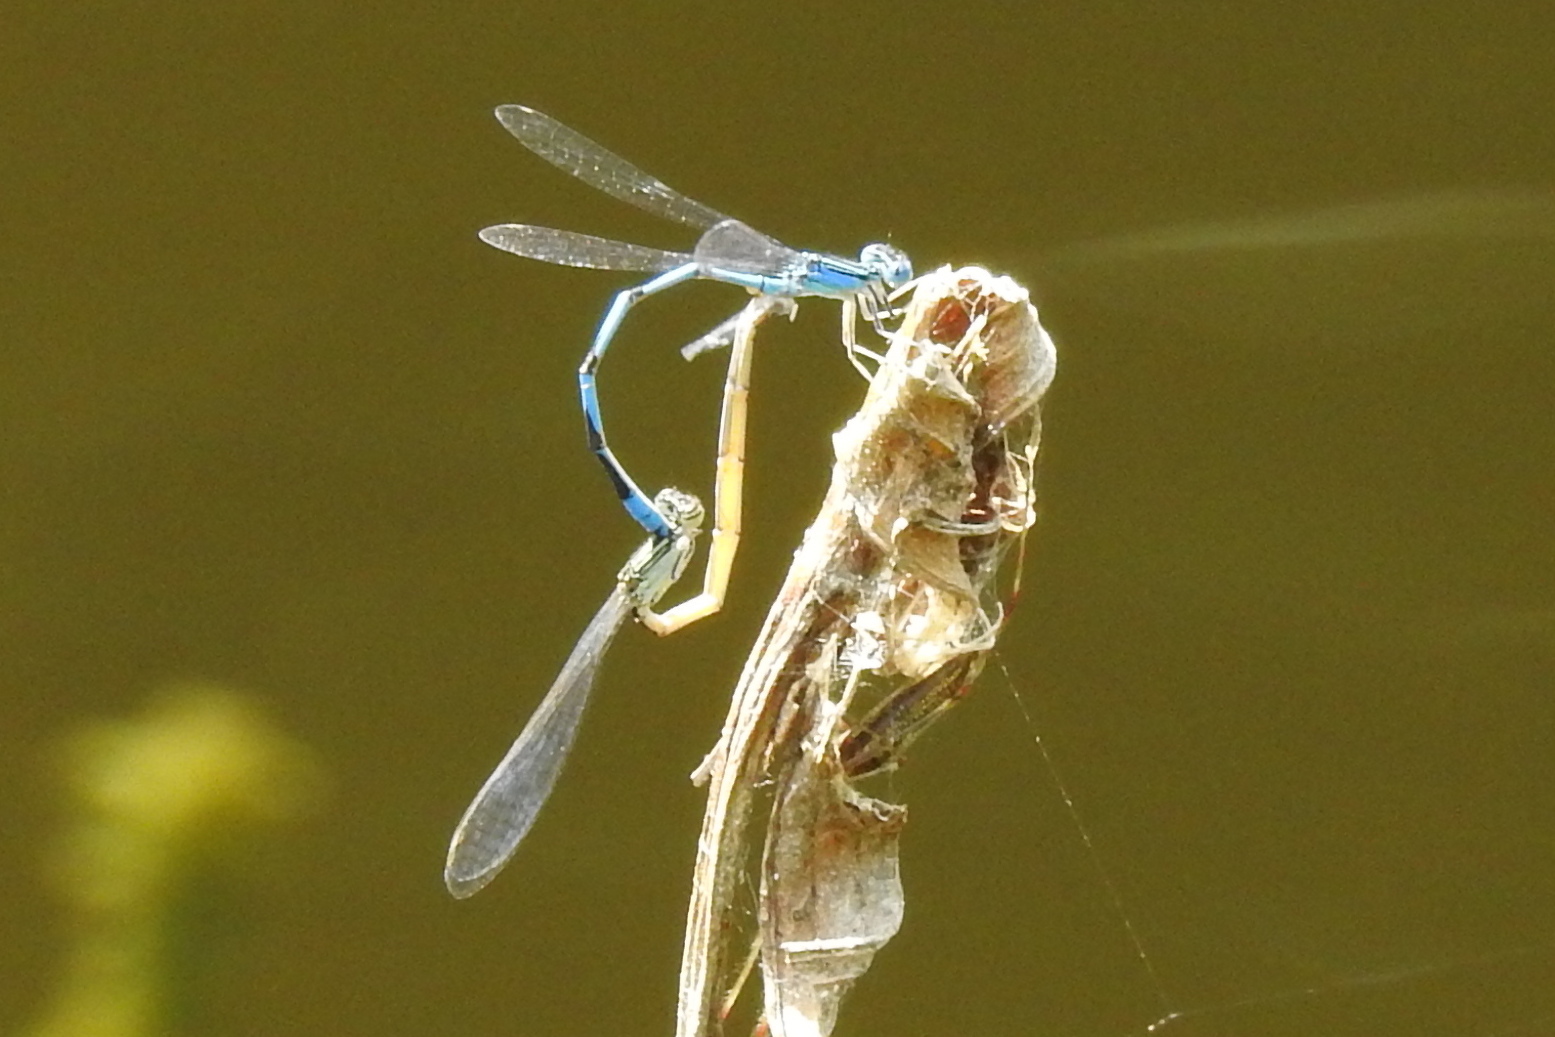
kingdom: Animalia
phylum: Arthropoda
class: Insecta
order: Odonata
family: Coenagrionidae
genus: Enallagma
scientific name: Enallagma basidens
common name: Double-striped bluet
